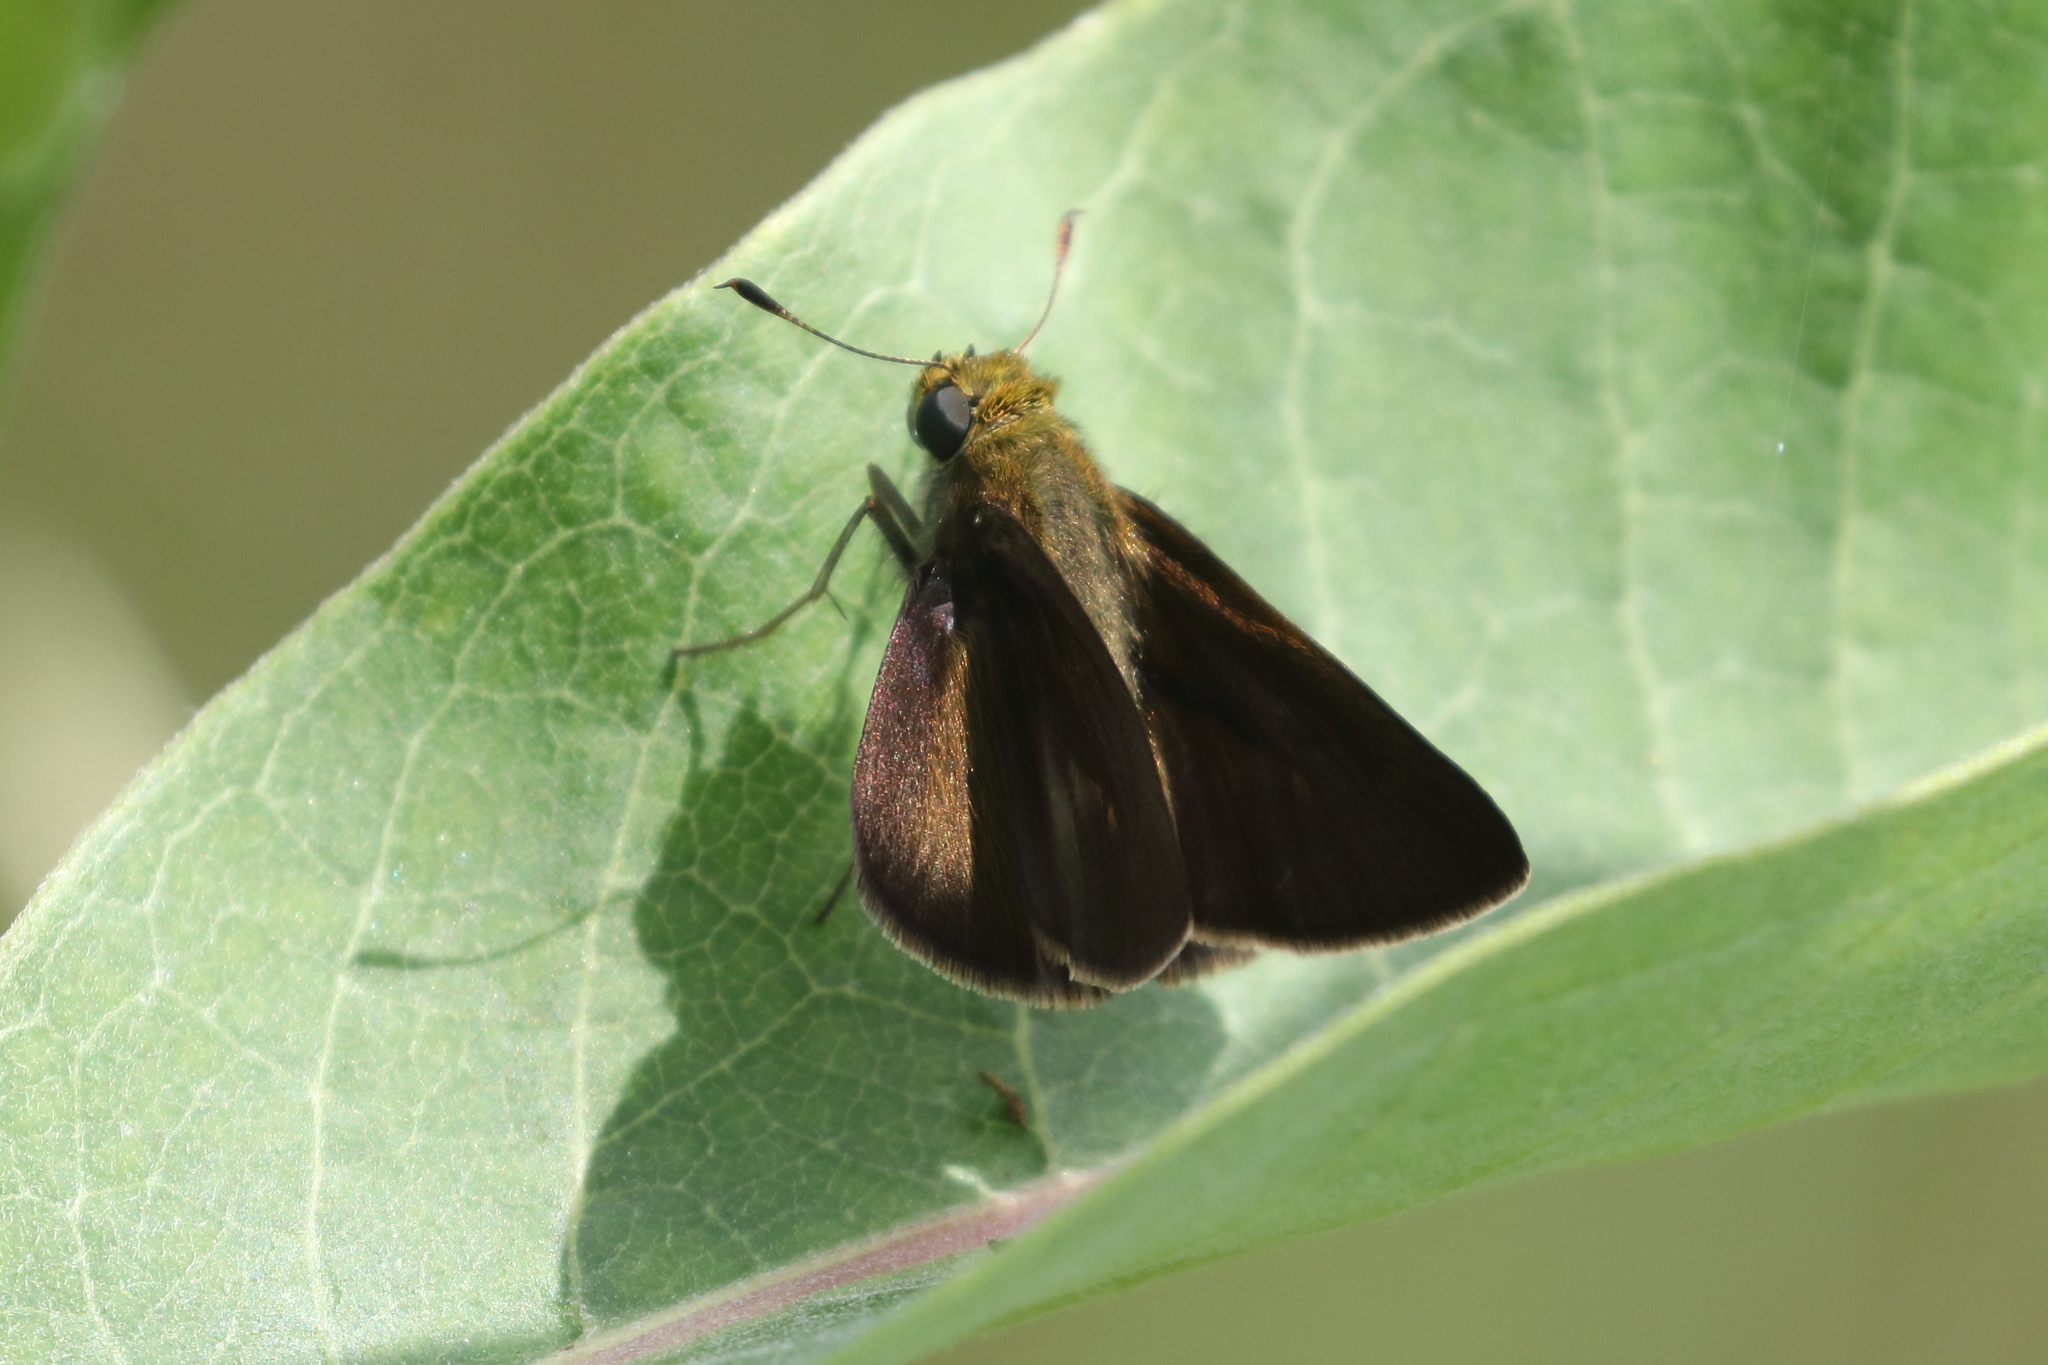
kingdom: Animalia
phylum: Arthropoda
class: Insecta
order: Lepidoptera
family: Hesperiidae
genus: Euphyes
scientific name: Euphyes vestris
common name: Dun skipper
